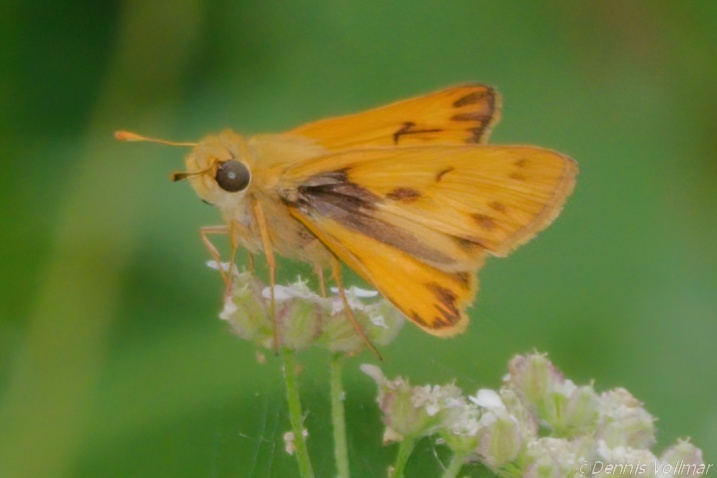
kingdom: Animalia
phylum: Arthropoda
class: Insecta
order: Lepidoptera
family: Hesperiidae
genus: Hylephila
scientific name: Hylephila phyleus
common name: Fiery skipper
